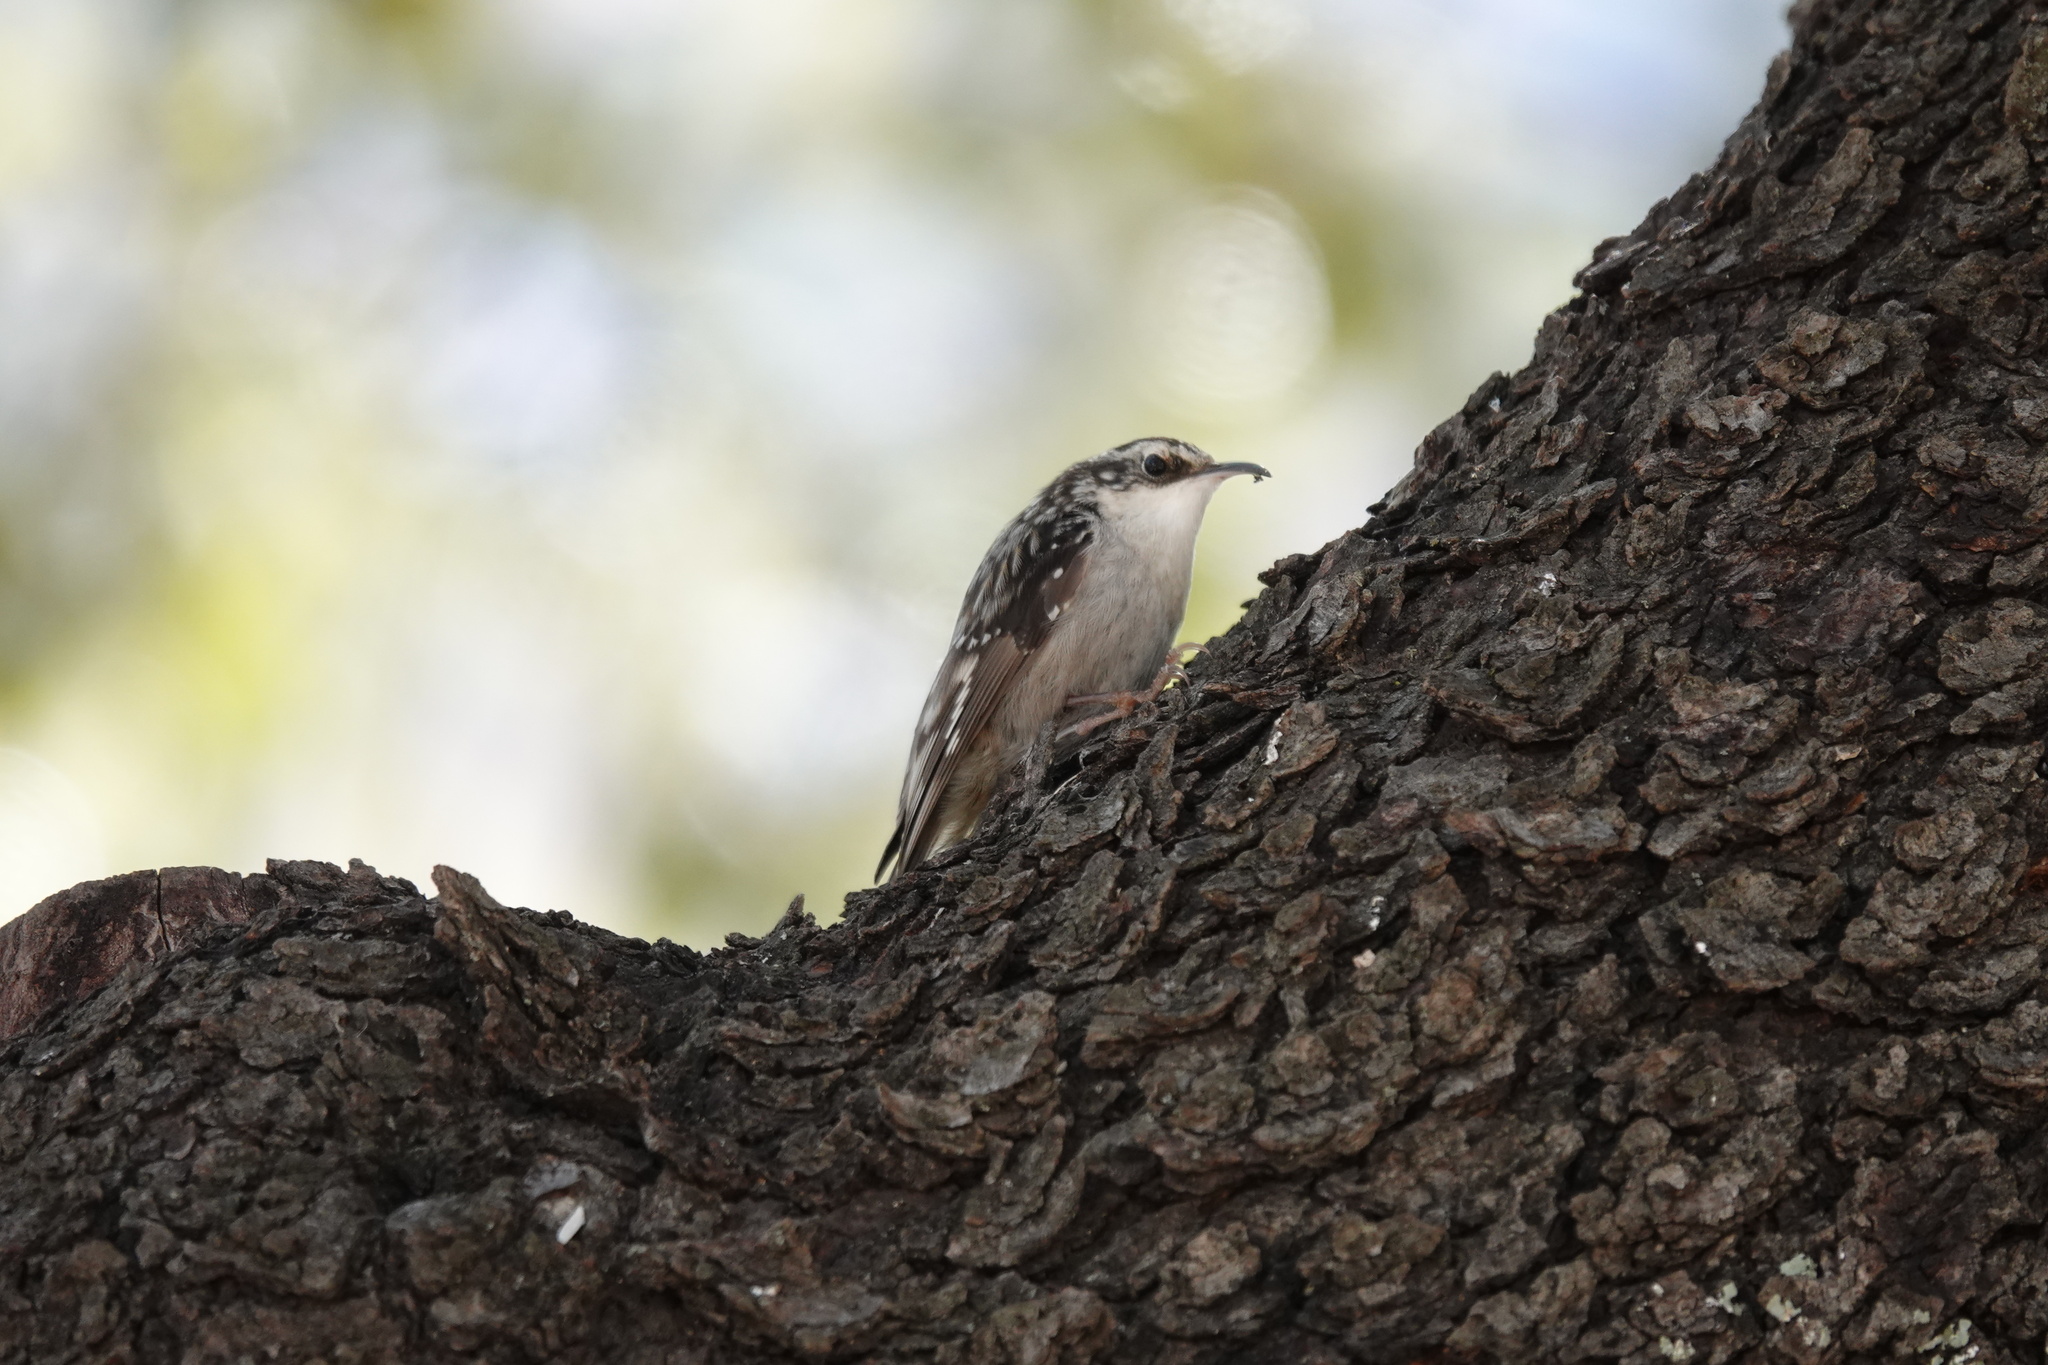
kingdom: Animalia
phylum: Chordata
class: Aves
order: Passeriformes
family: Certhiidae
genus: Certhia
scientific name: Certhia americana
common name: Brown creeper
